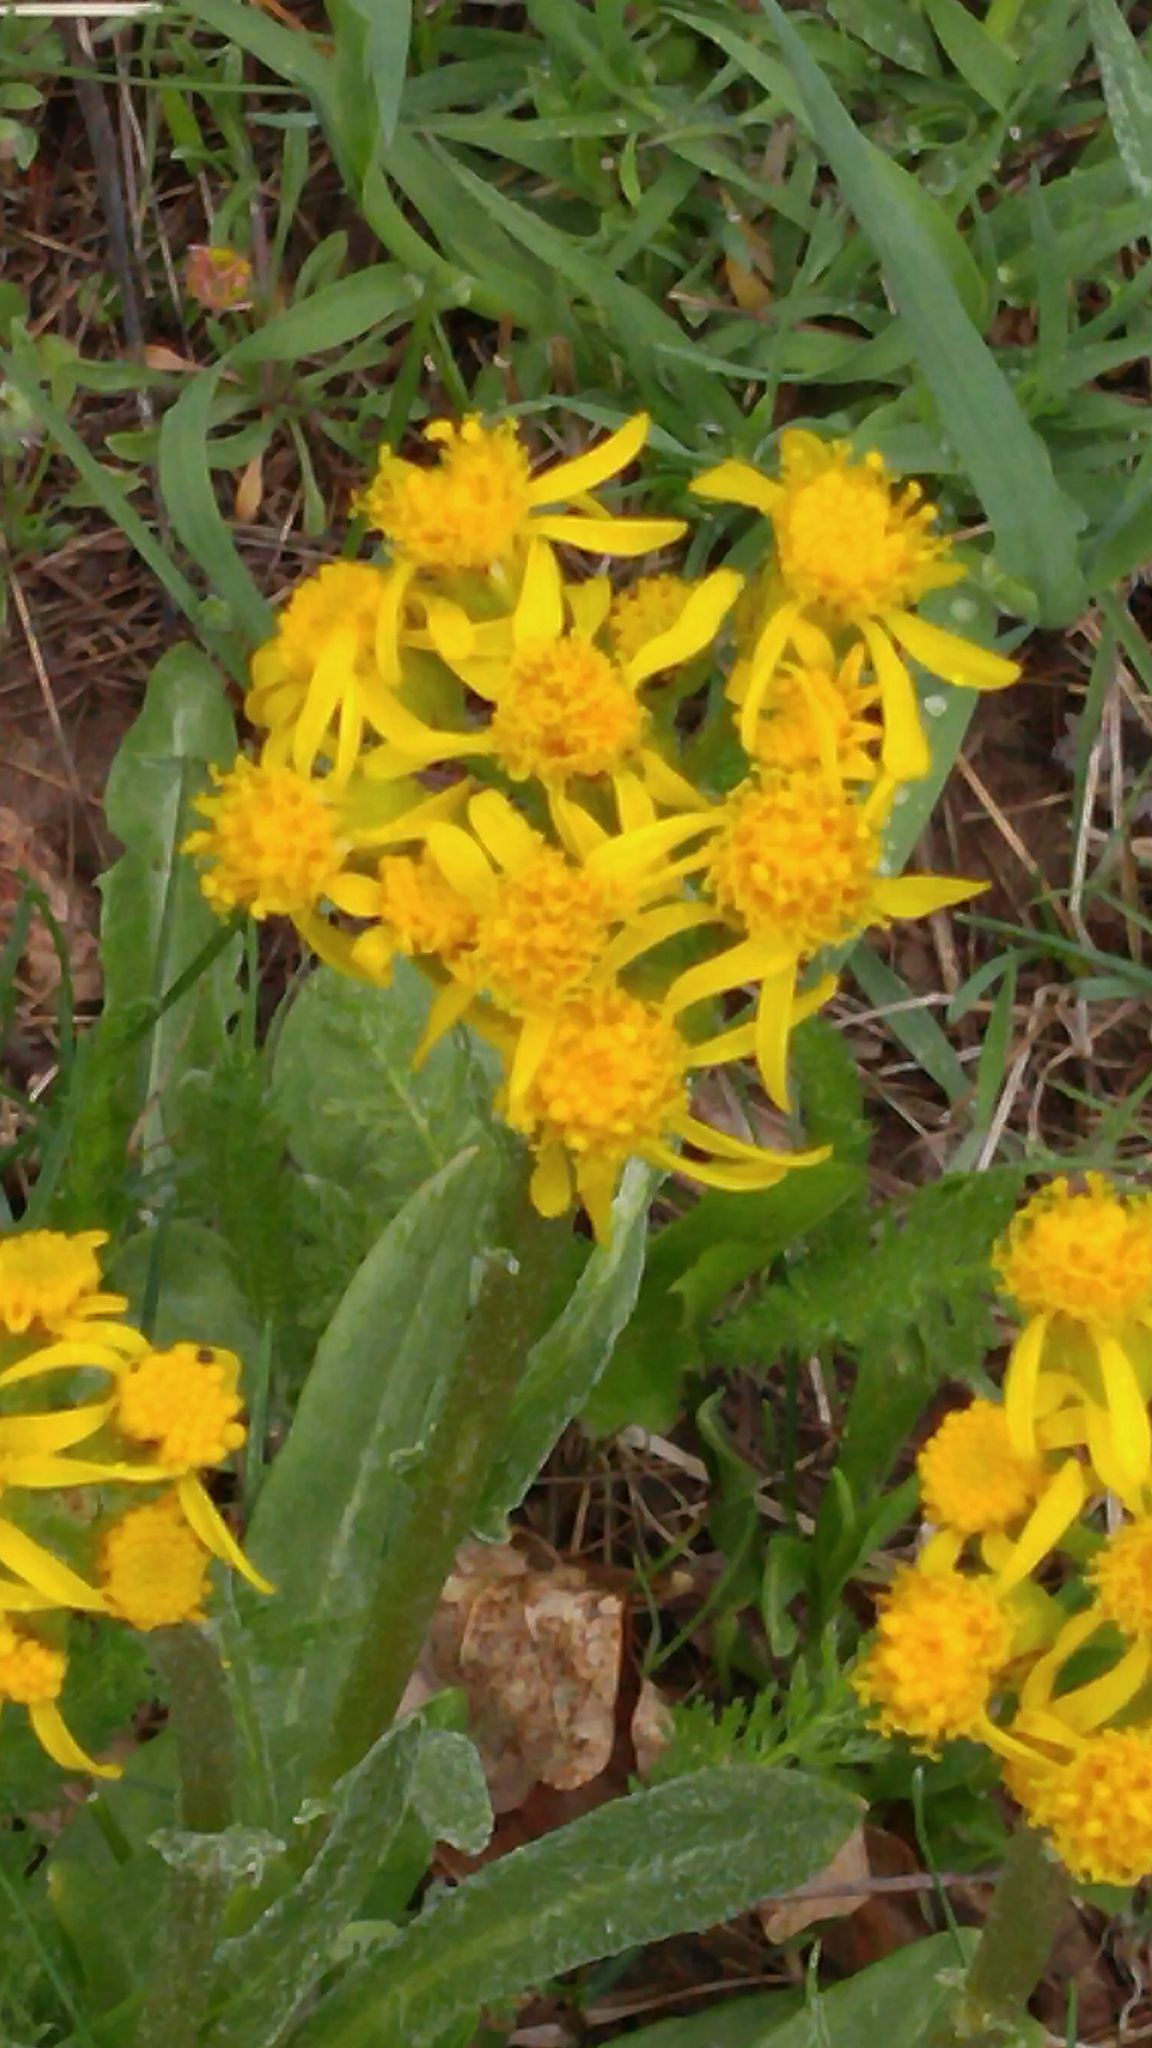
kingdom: Plantae
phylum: Tracheophyta
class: Magnoliopsida
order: Asterales
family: Asteraceae
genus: Senecio
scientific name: Senecio integerrimus
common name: Gaugeplant
